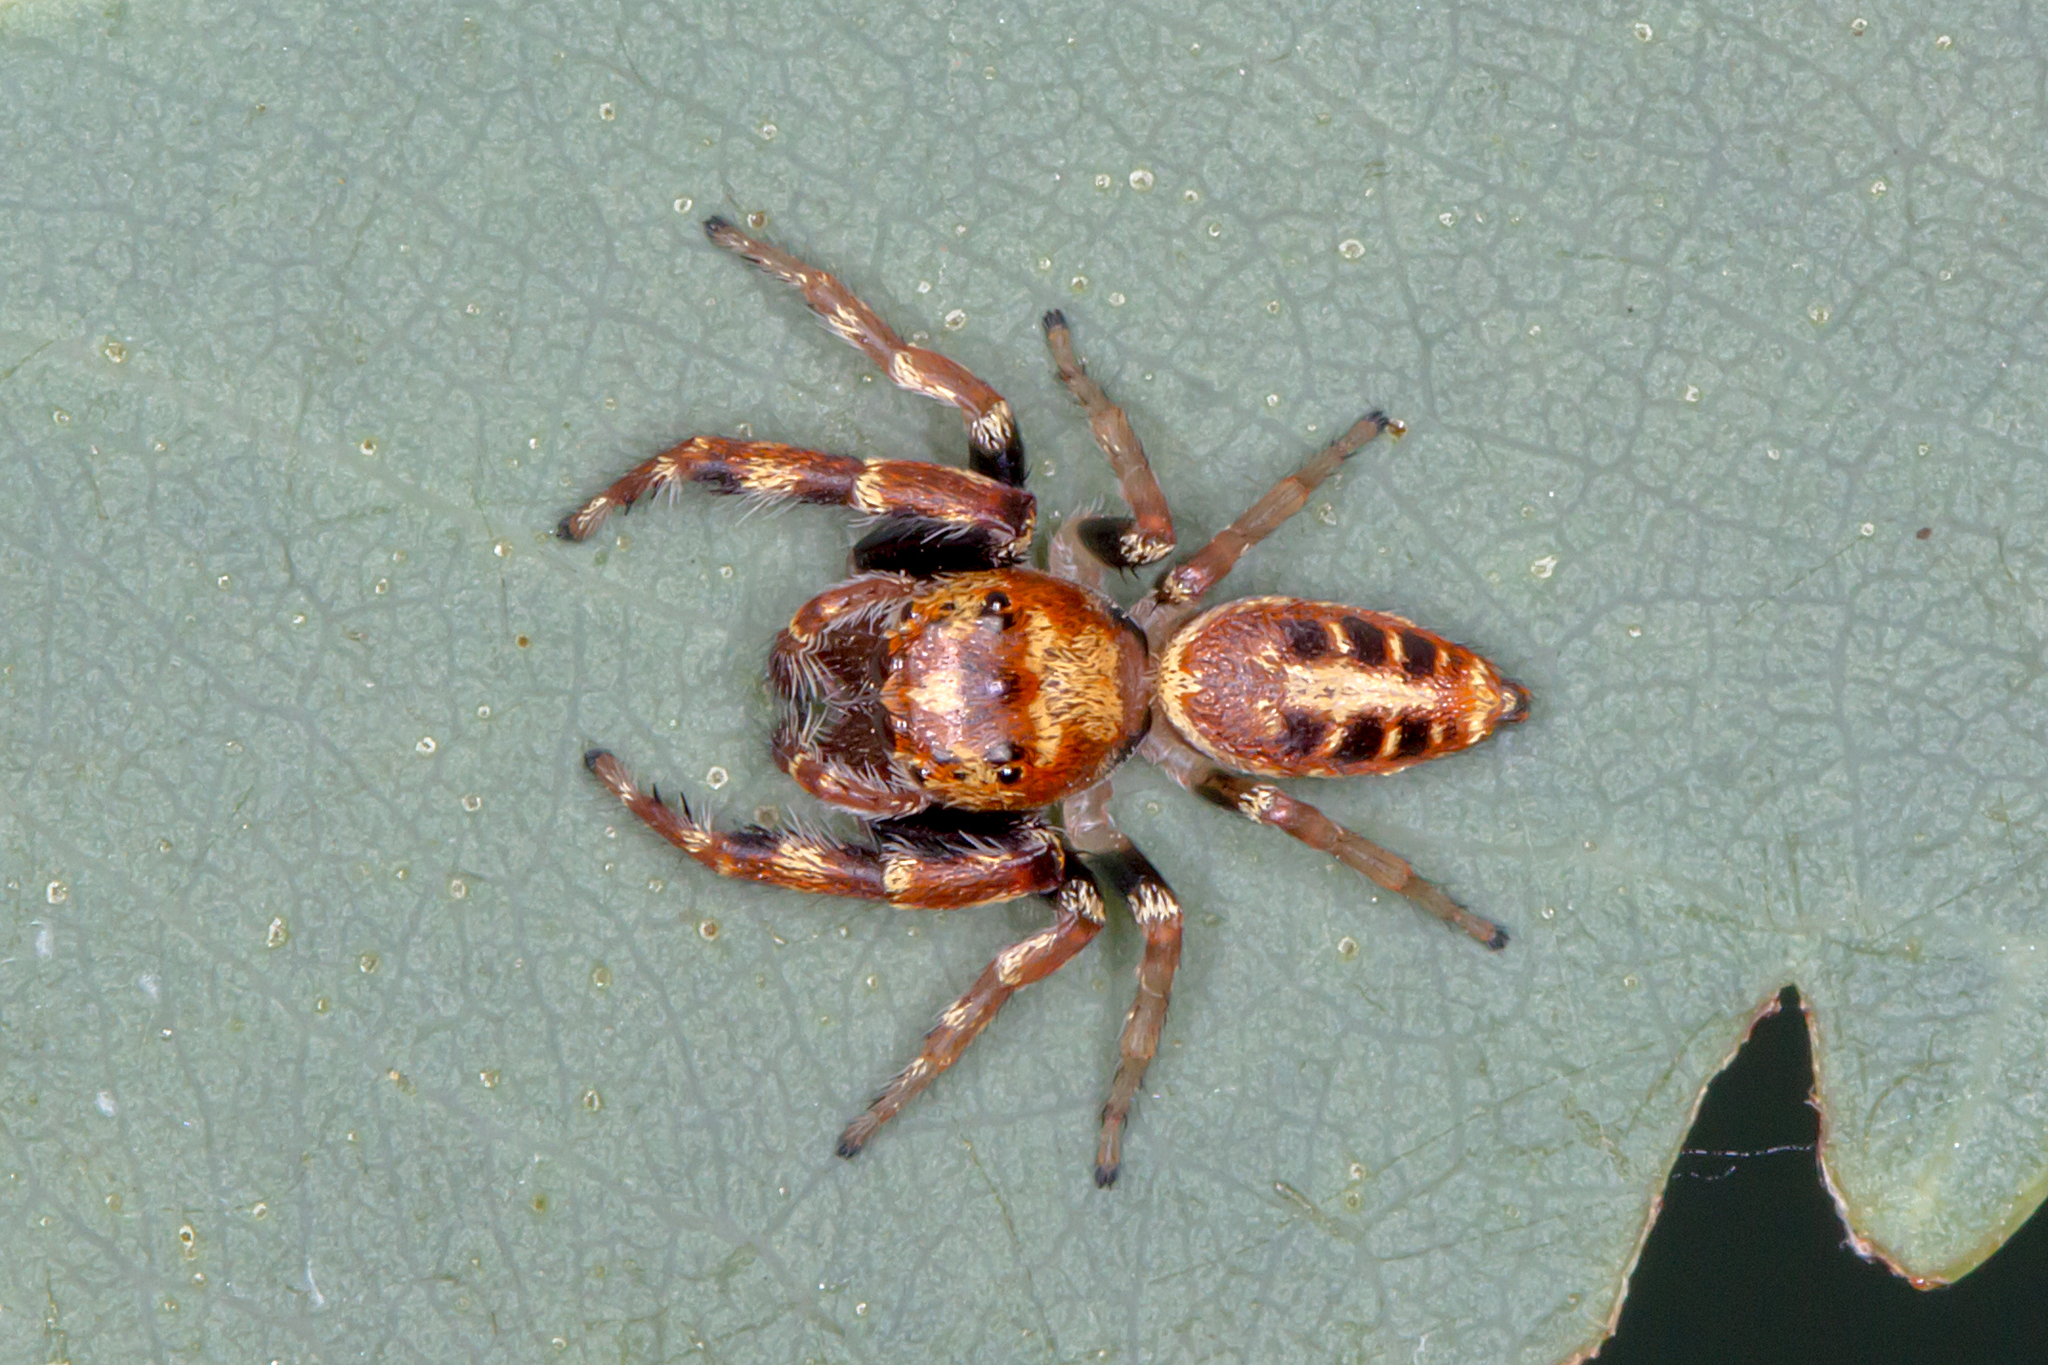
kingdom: Animalia
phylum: Arthropoda
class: Arachnida
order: Araneae
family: Salticidae
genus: Opisthoncus
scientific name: Opisthoncus sexmaculatus
